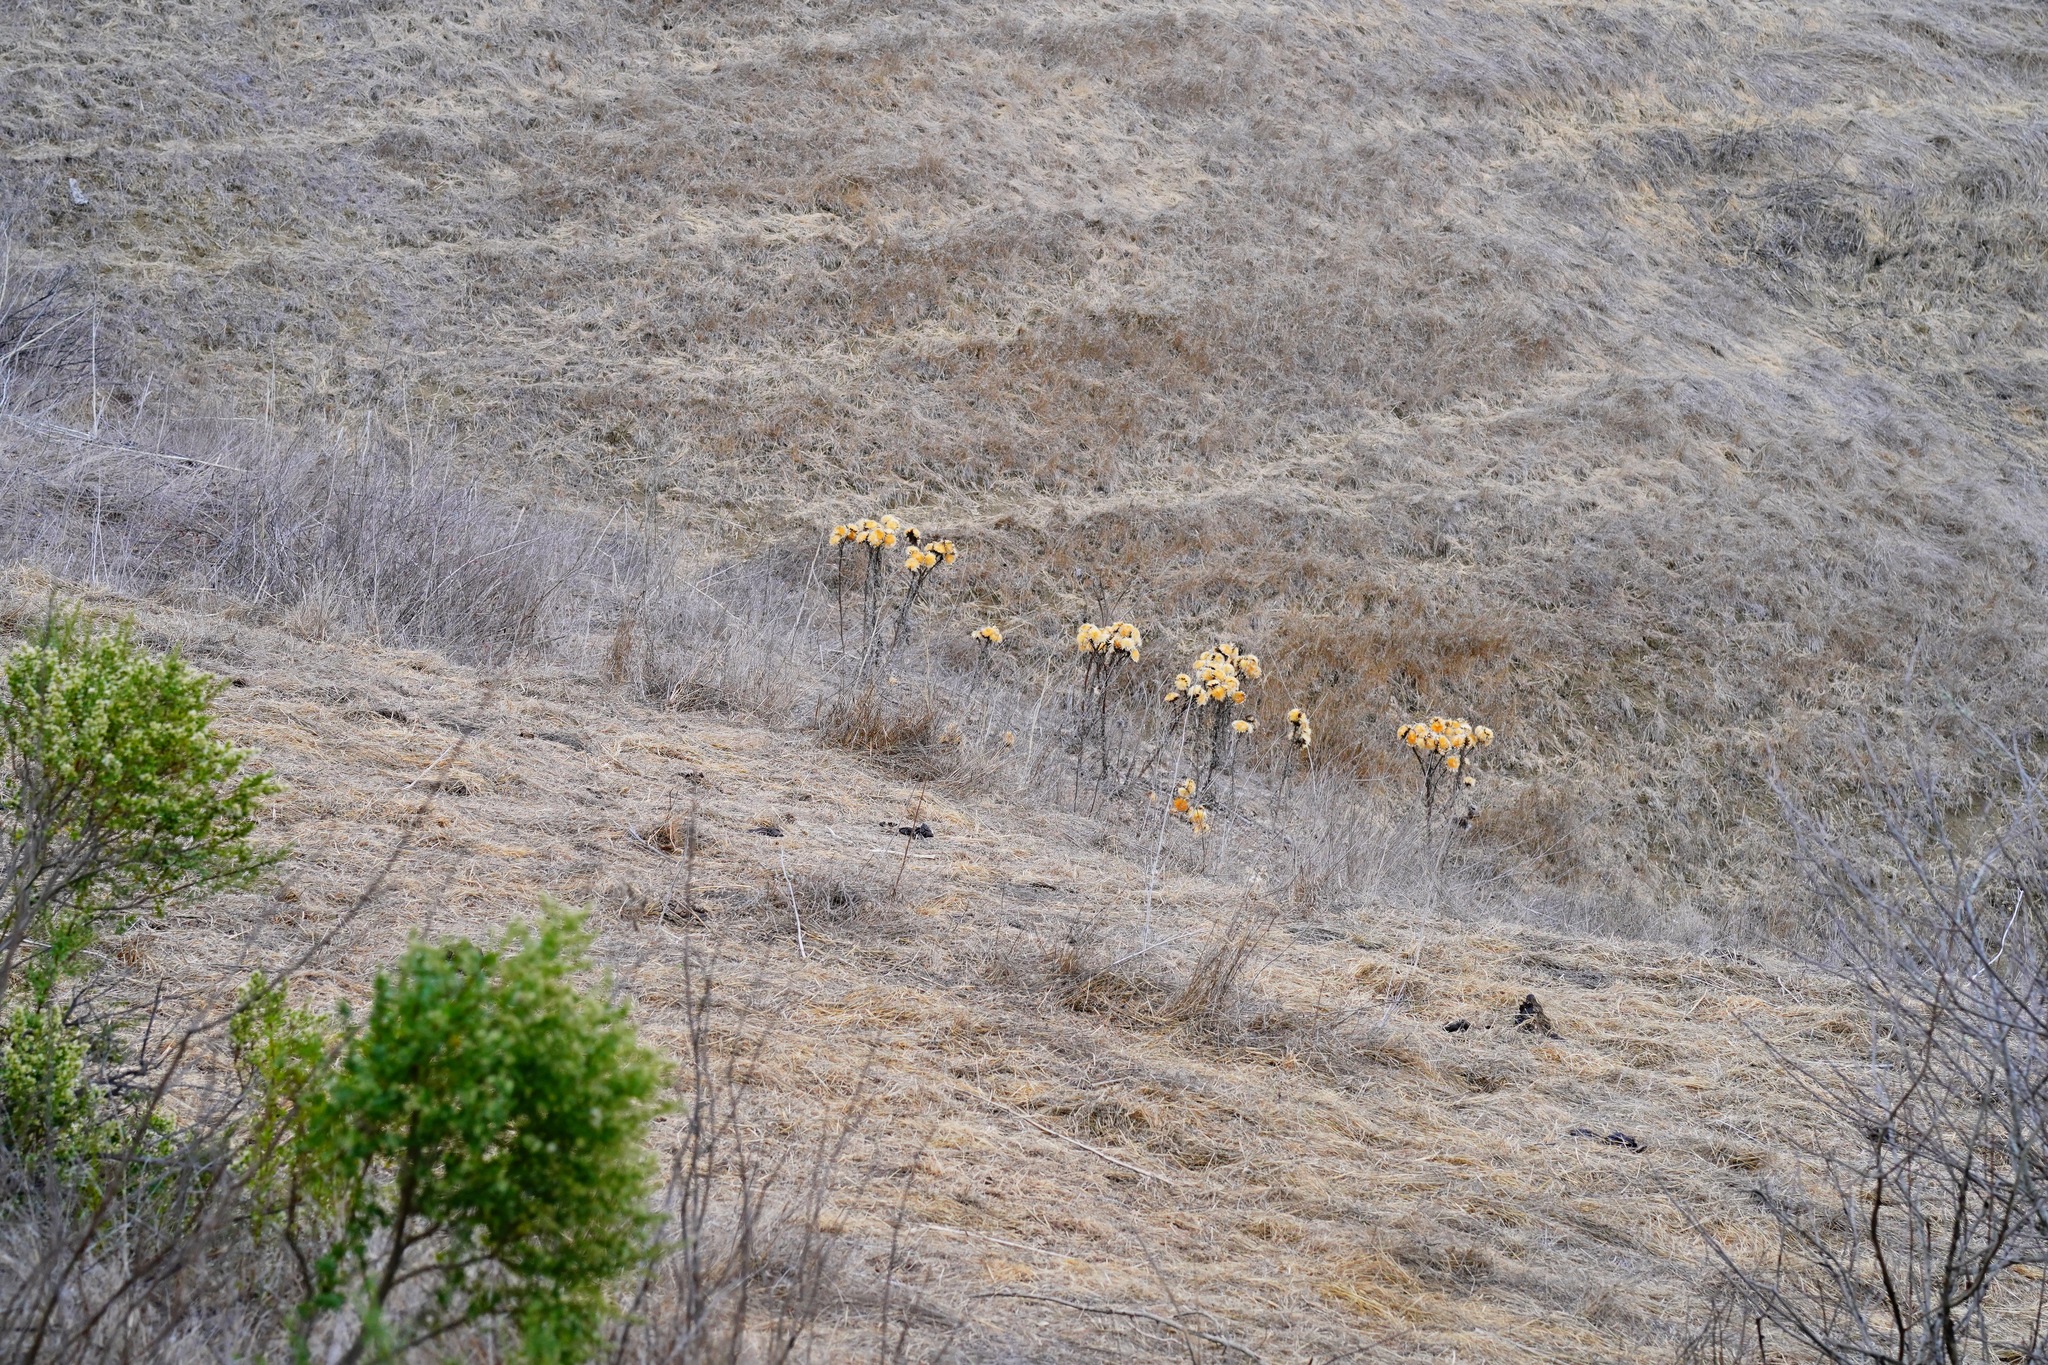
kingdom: Plantae
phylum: Tracheophyta
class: Magnoliopsida
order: Asterales
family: Asteraceae
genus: Cynara
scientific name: Cynara cardunculus
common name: Globe artichoke
